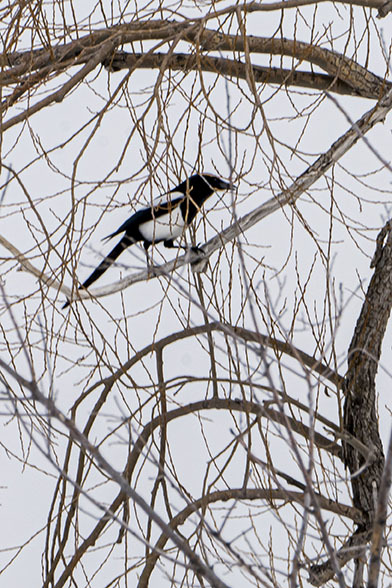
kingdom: Animalia
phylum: Chordata
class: Aves
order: Passeriformes
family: Corvidae
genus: Pica
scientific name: Pica hudsonia
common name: Black-billed magpie
